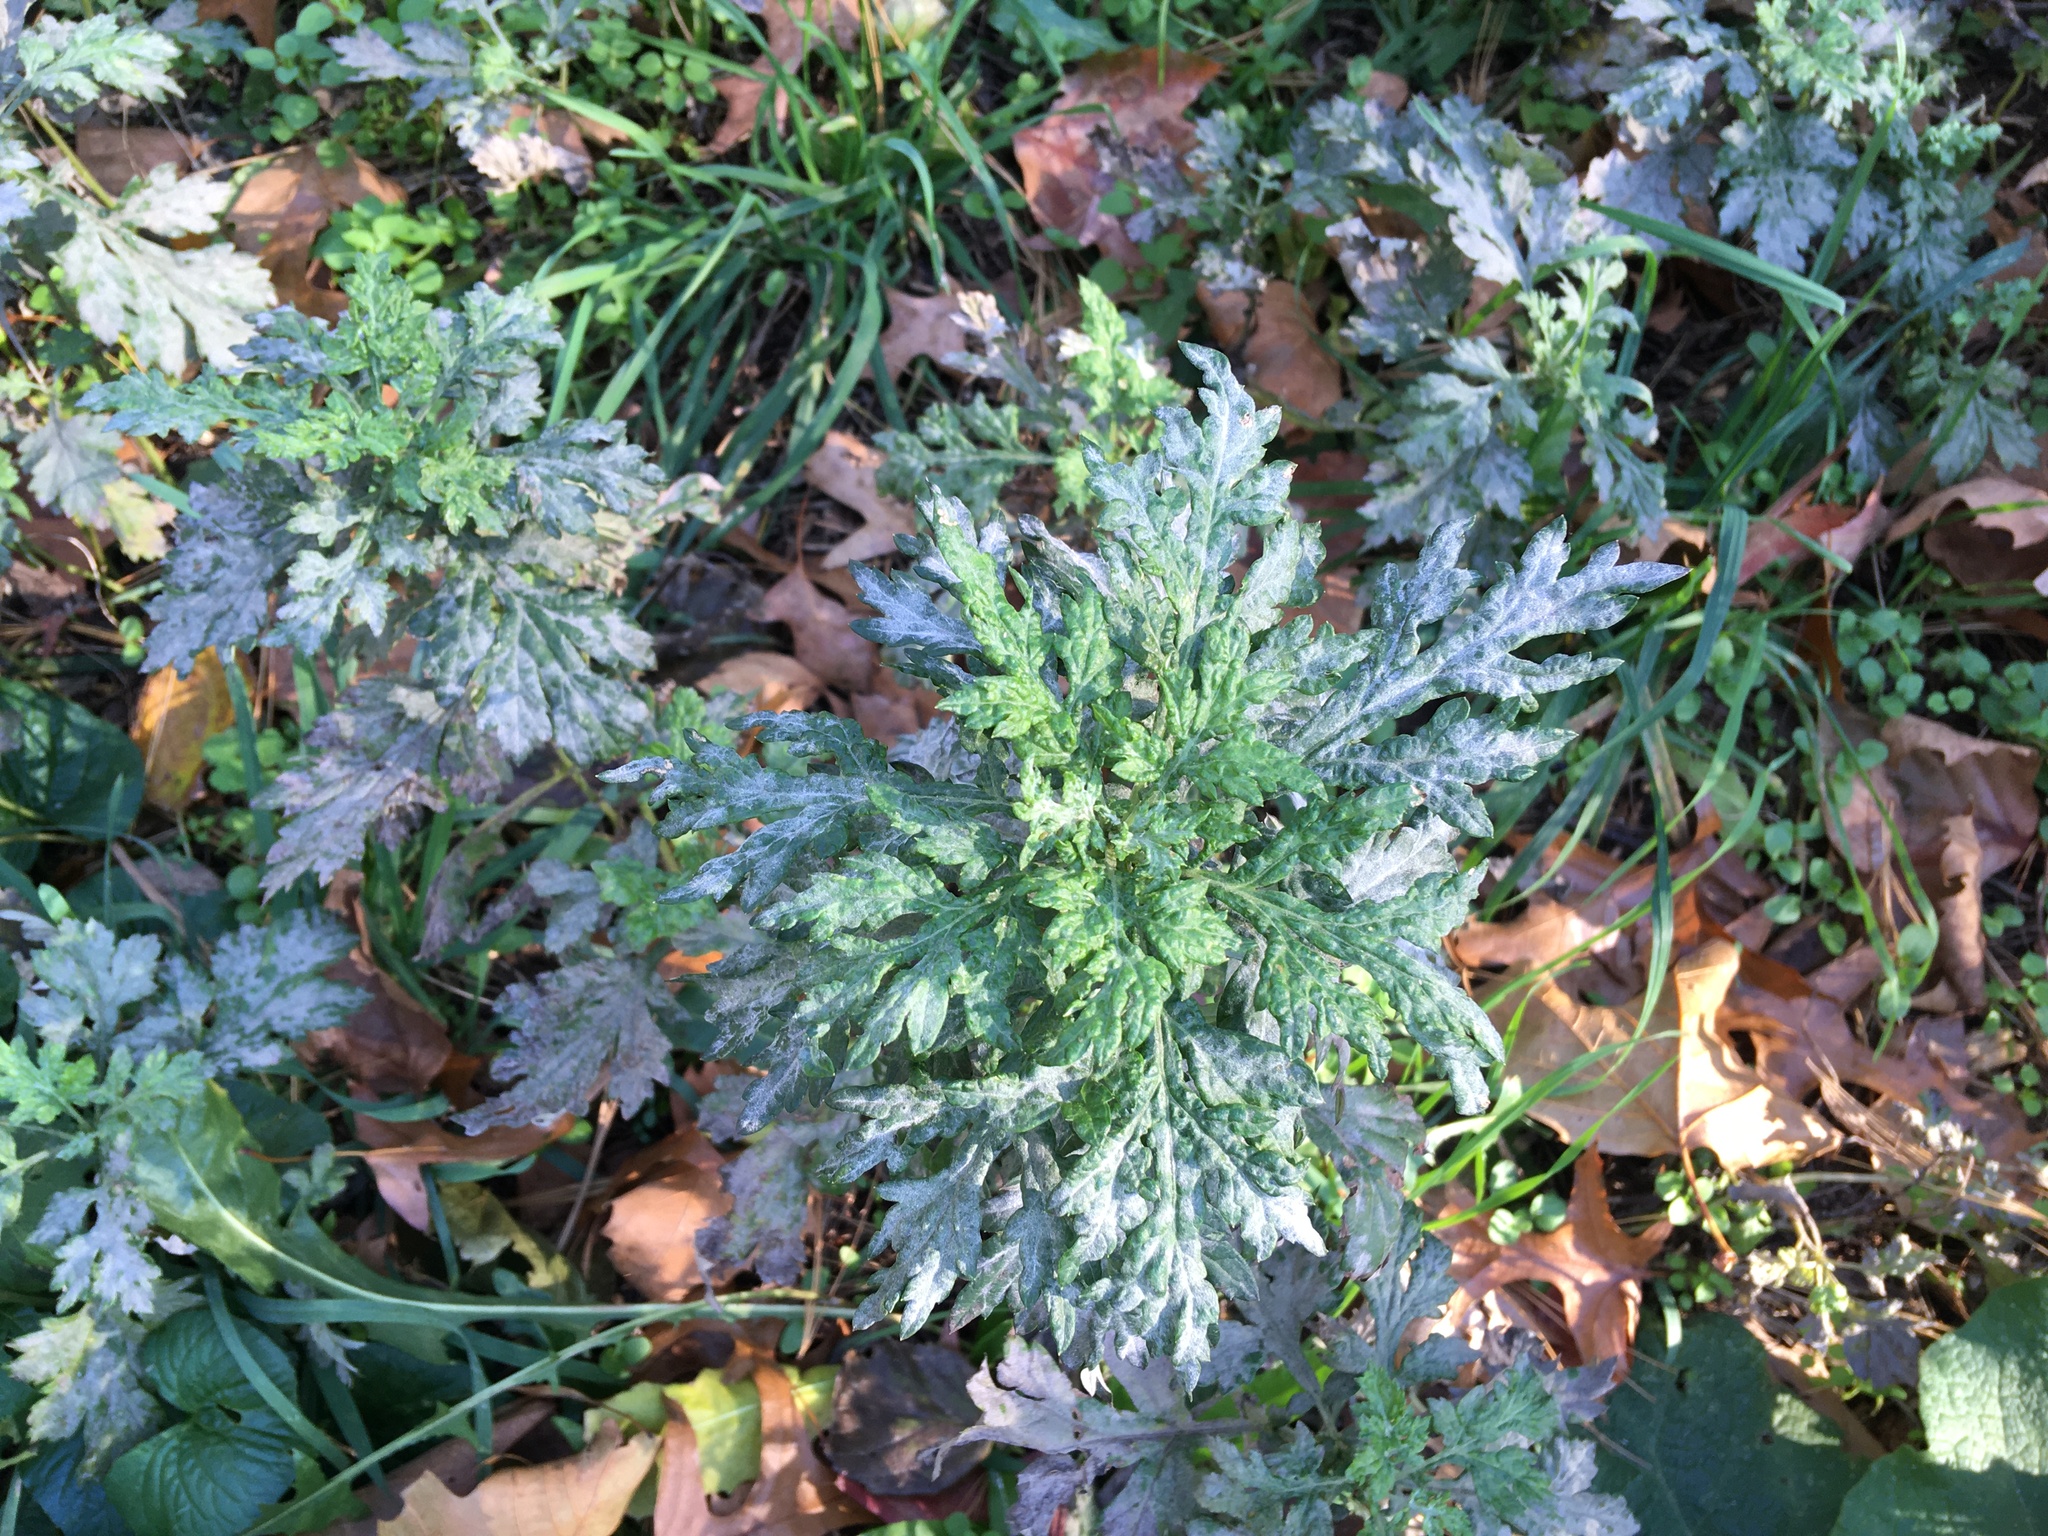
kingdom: Plantae
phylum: Tracheophyta
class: Magnoliopsida
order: Asterales
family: Asteraceae
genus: Artemisia
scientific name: Artemisia vulgaris
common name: Mugwort
